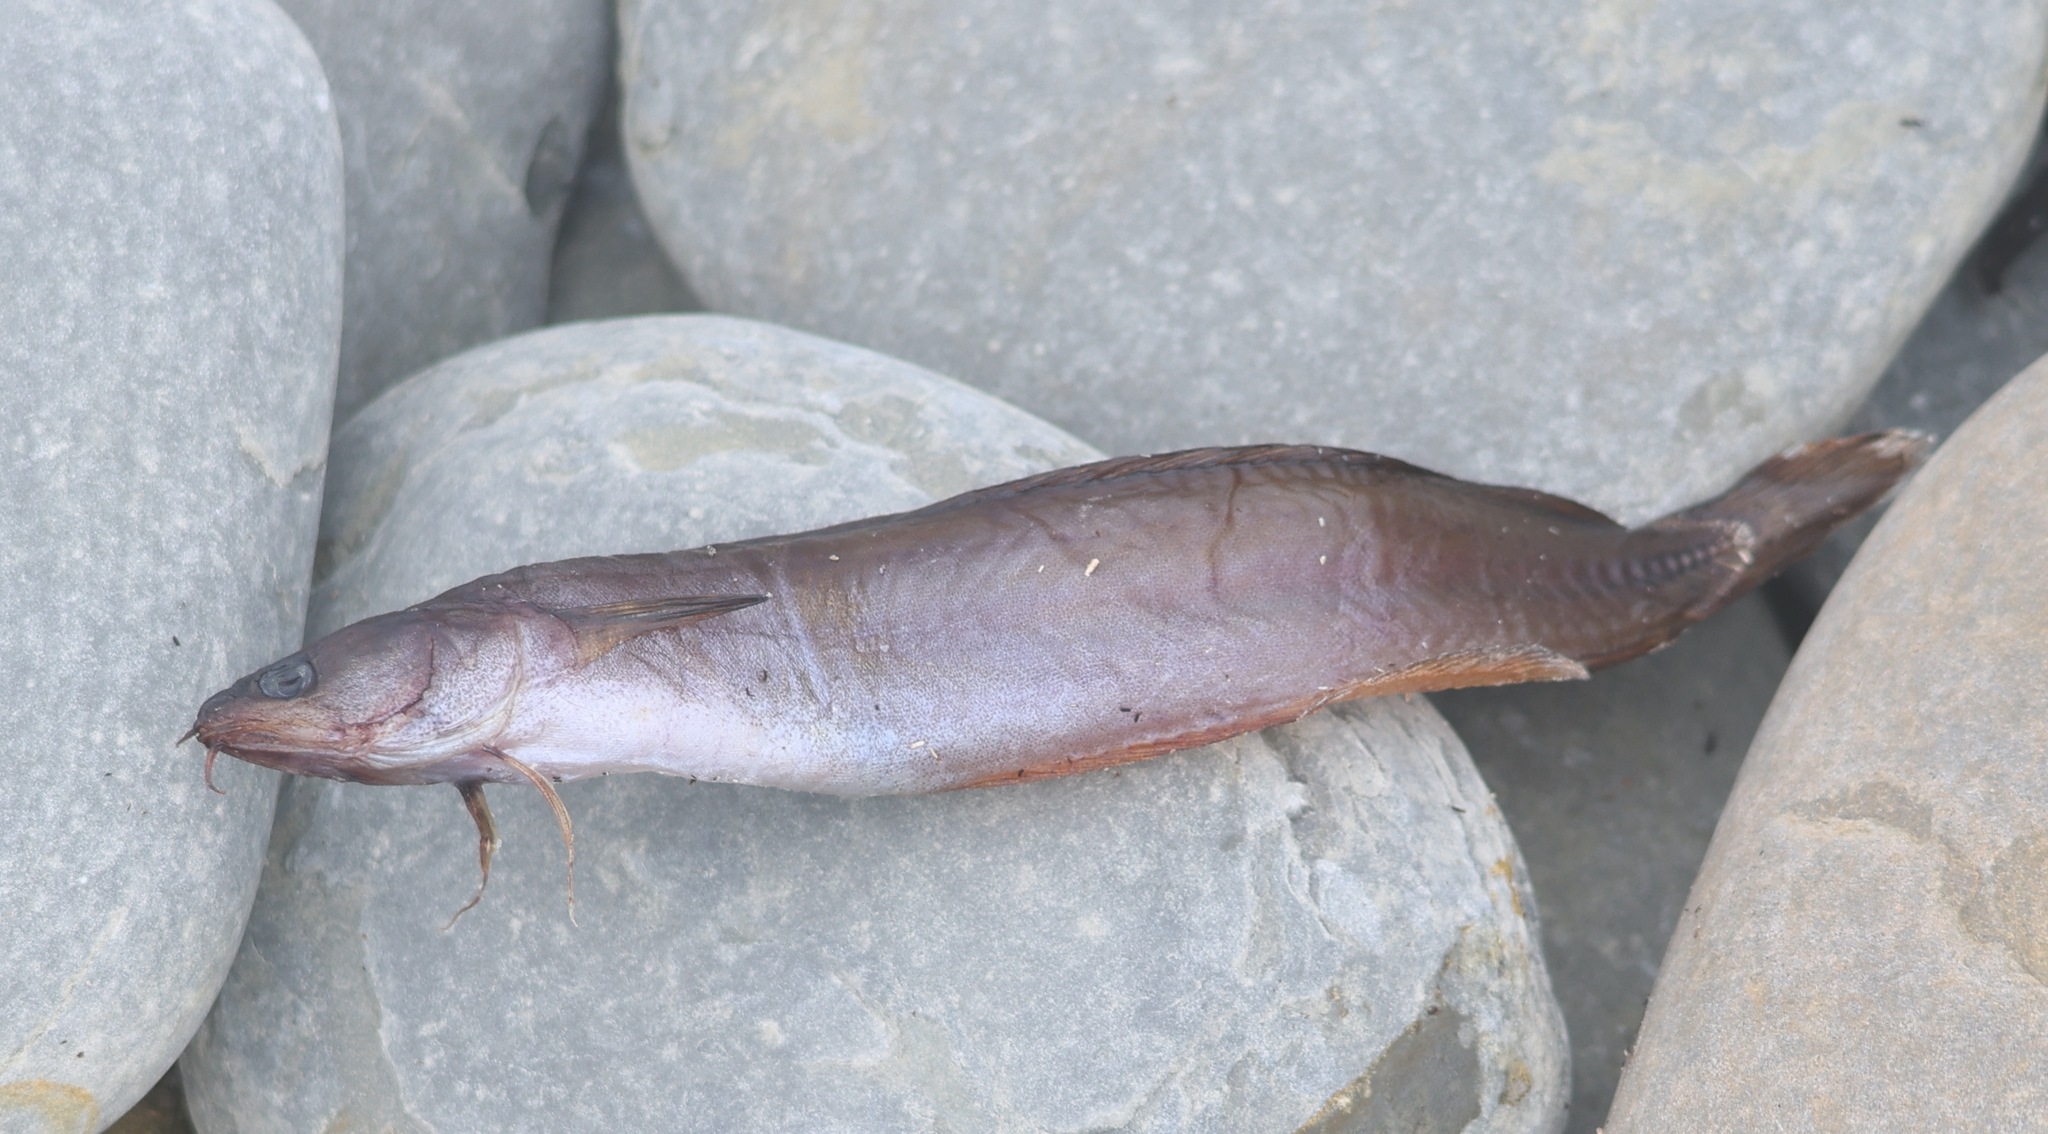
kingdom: Animalia
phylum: Chordata
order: Gadiformes
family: Lotidae
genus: Gaidropsarus
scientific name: Gaidropsarus mediterraneus
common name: Shore rockling
